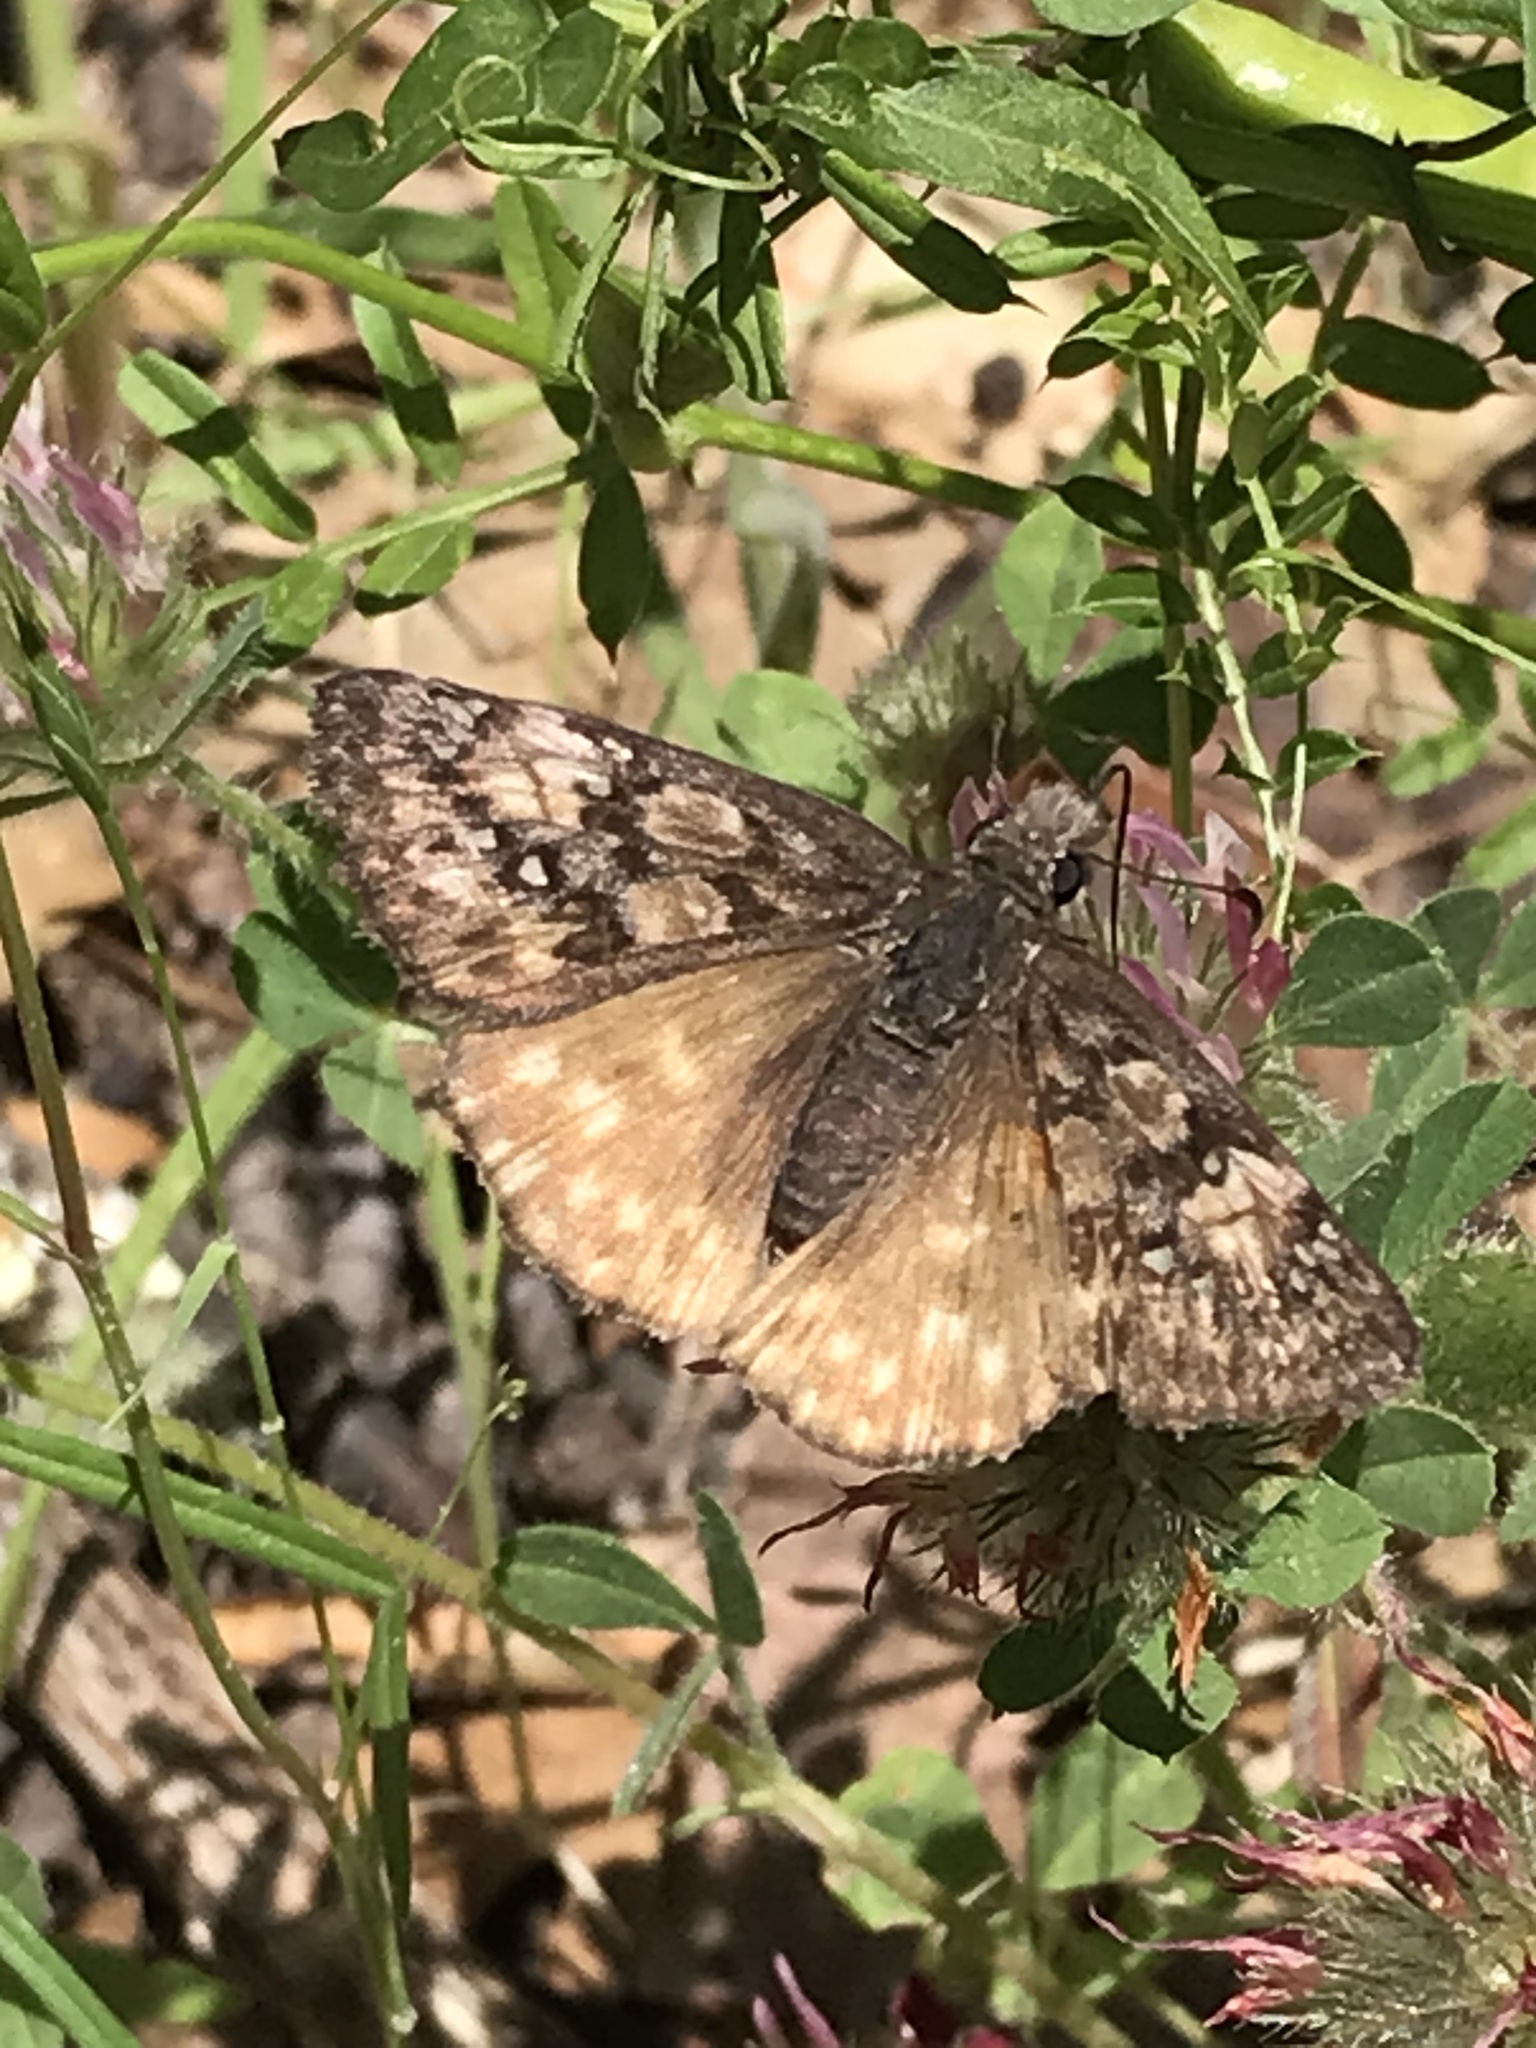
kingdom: Animalia
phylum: Arthropoda
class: Insecta
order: Lepidoptera
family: Hesperiidae
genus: Erynnis
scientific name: Erynnis propertius
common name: Propertius duskywing
